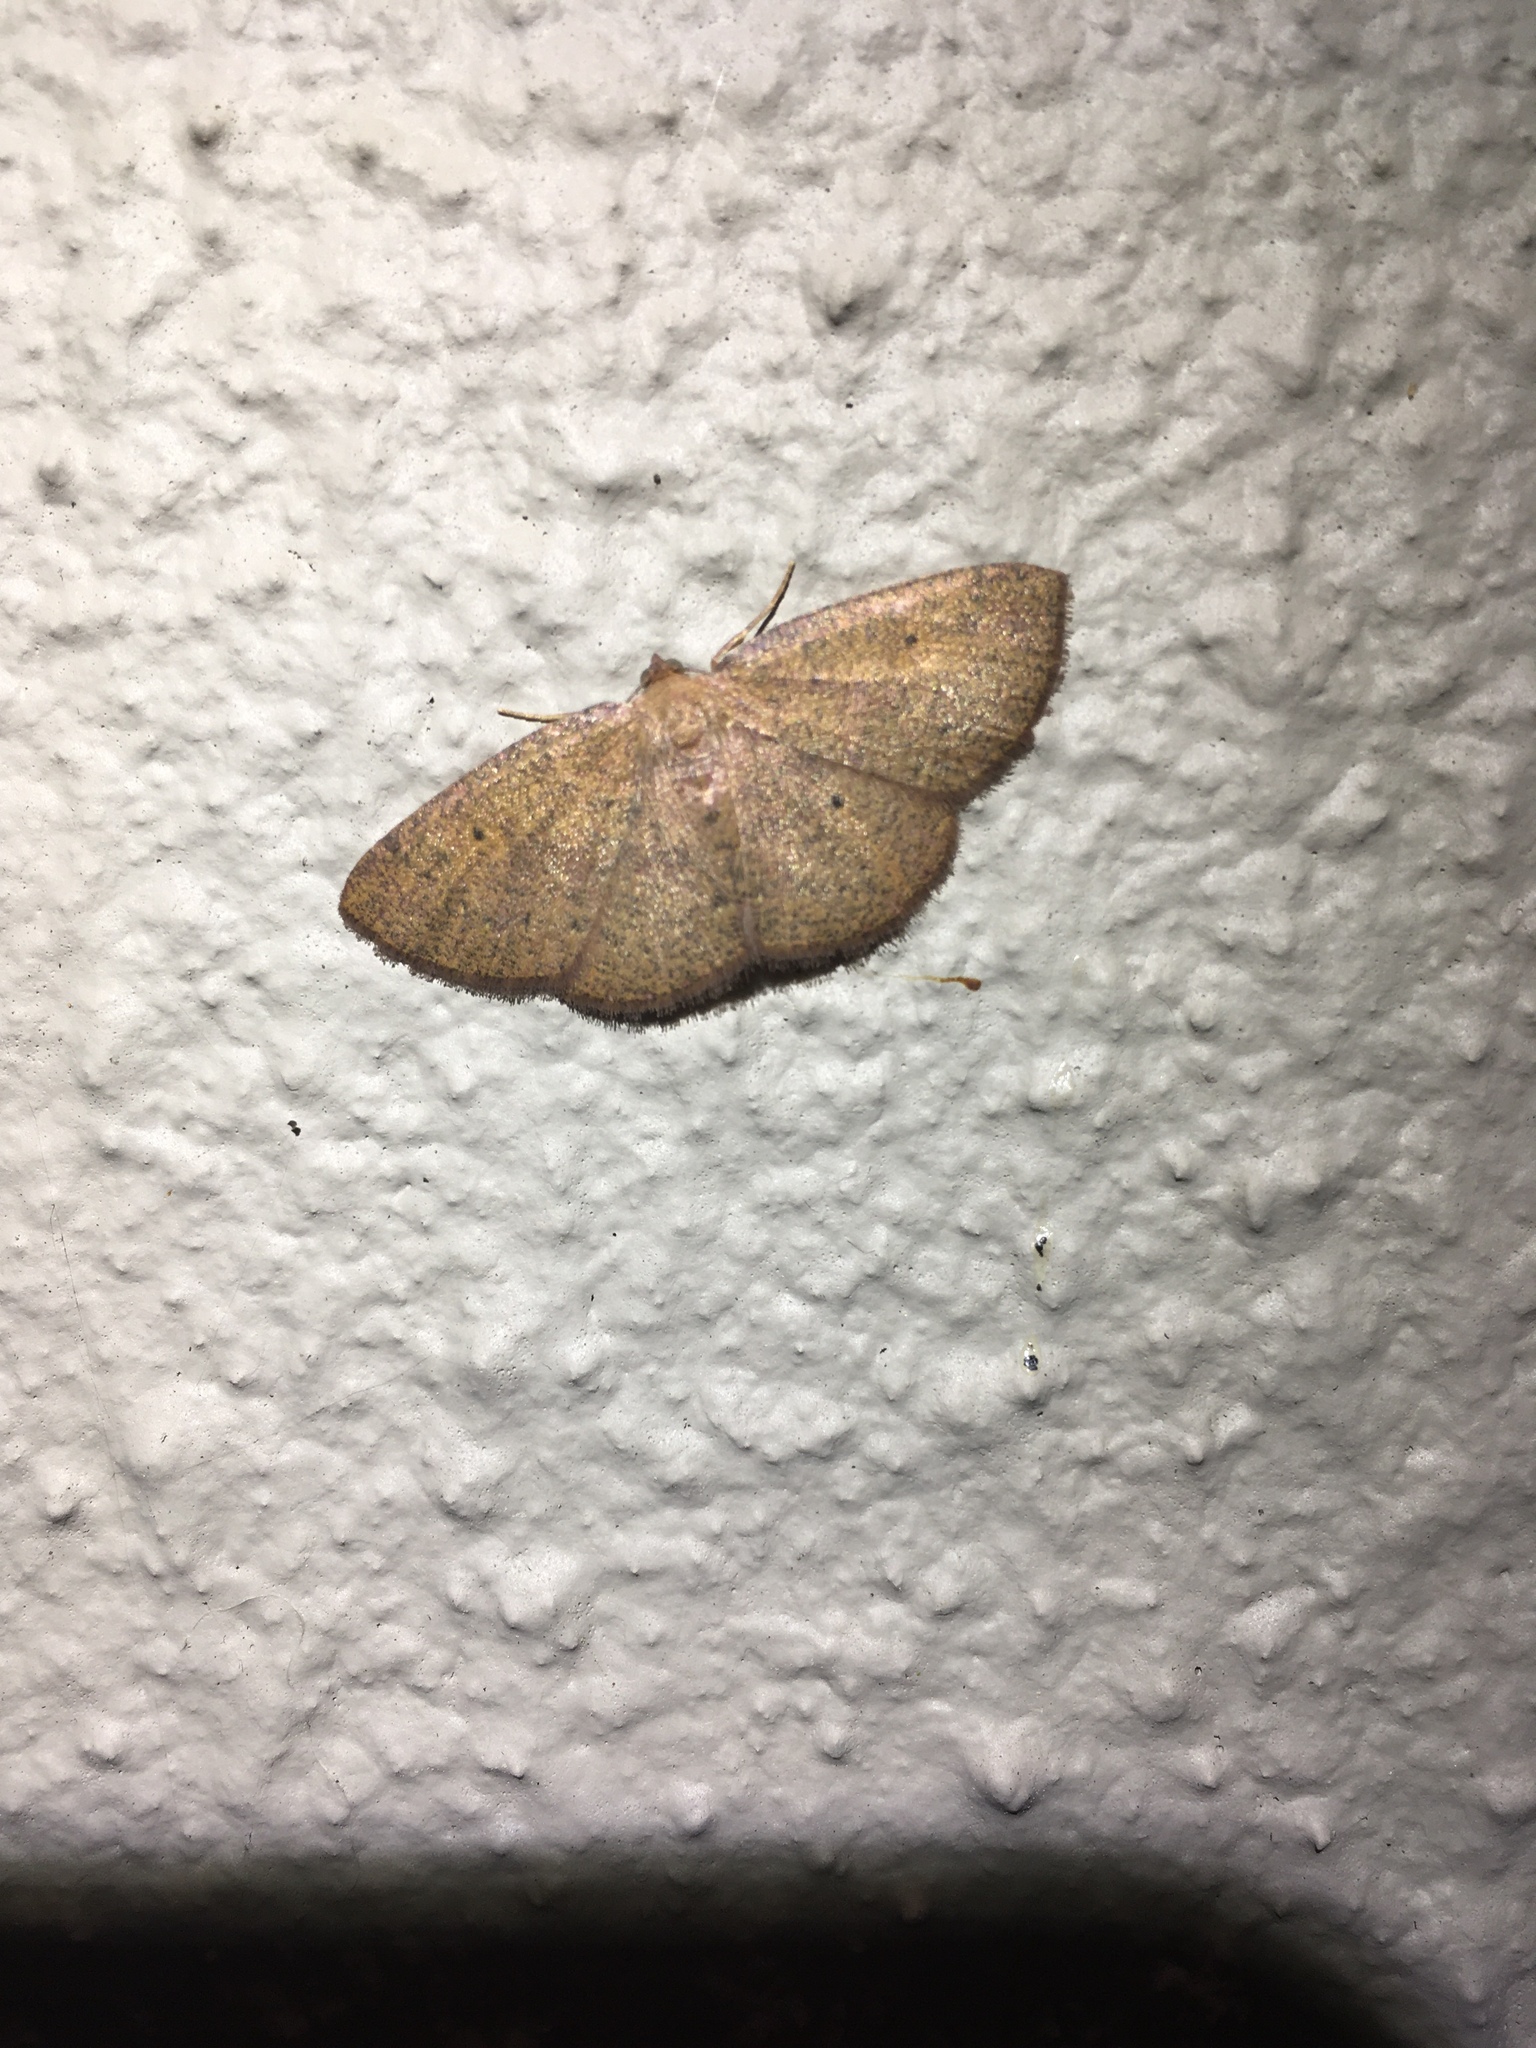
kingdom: Animalia
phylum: Arthropoda
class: Insecta
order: Lepidoptera
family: Geometridae
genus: Ilexia
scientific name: Ilexia intractata
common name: Black-dotted ruddy moth
